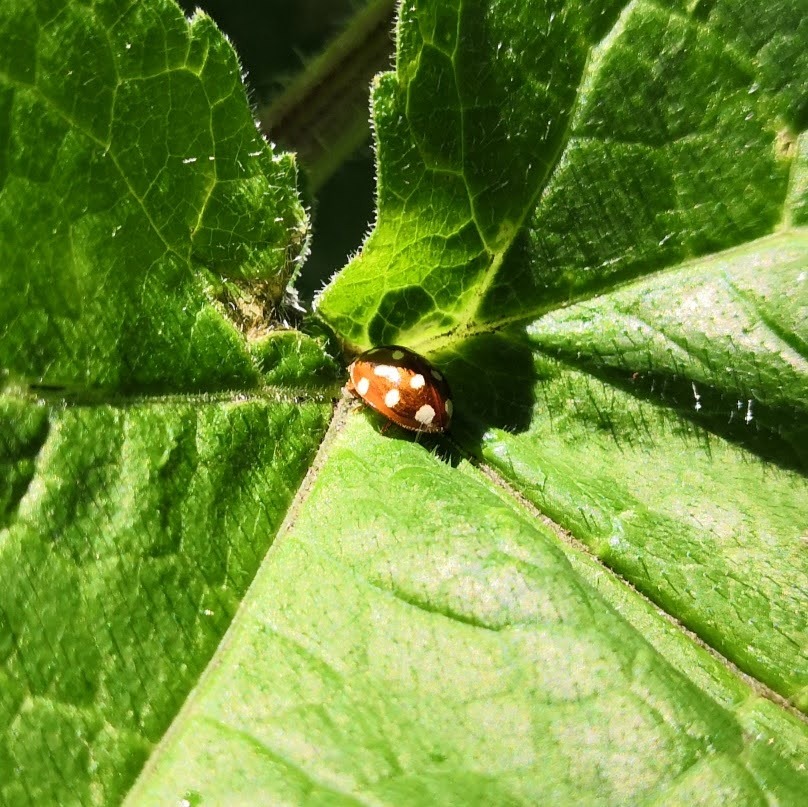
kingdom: Animalia
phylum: Arthropoda
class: Insecta
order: Coleoptera
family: Coccinellidae
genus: Calvia
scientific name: Calvia quatuordecimguttata
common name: Cream-spot ladybird
